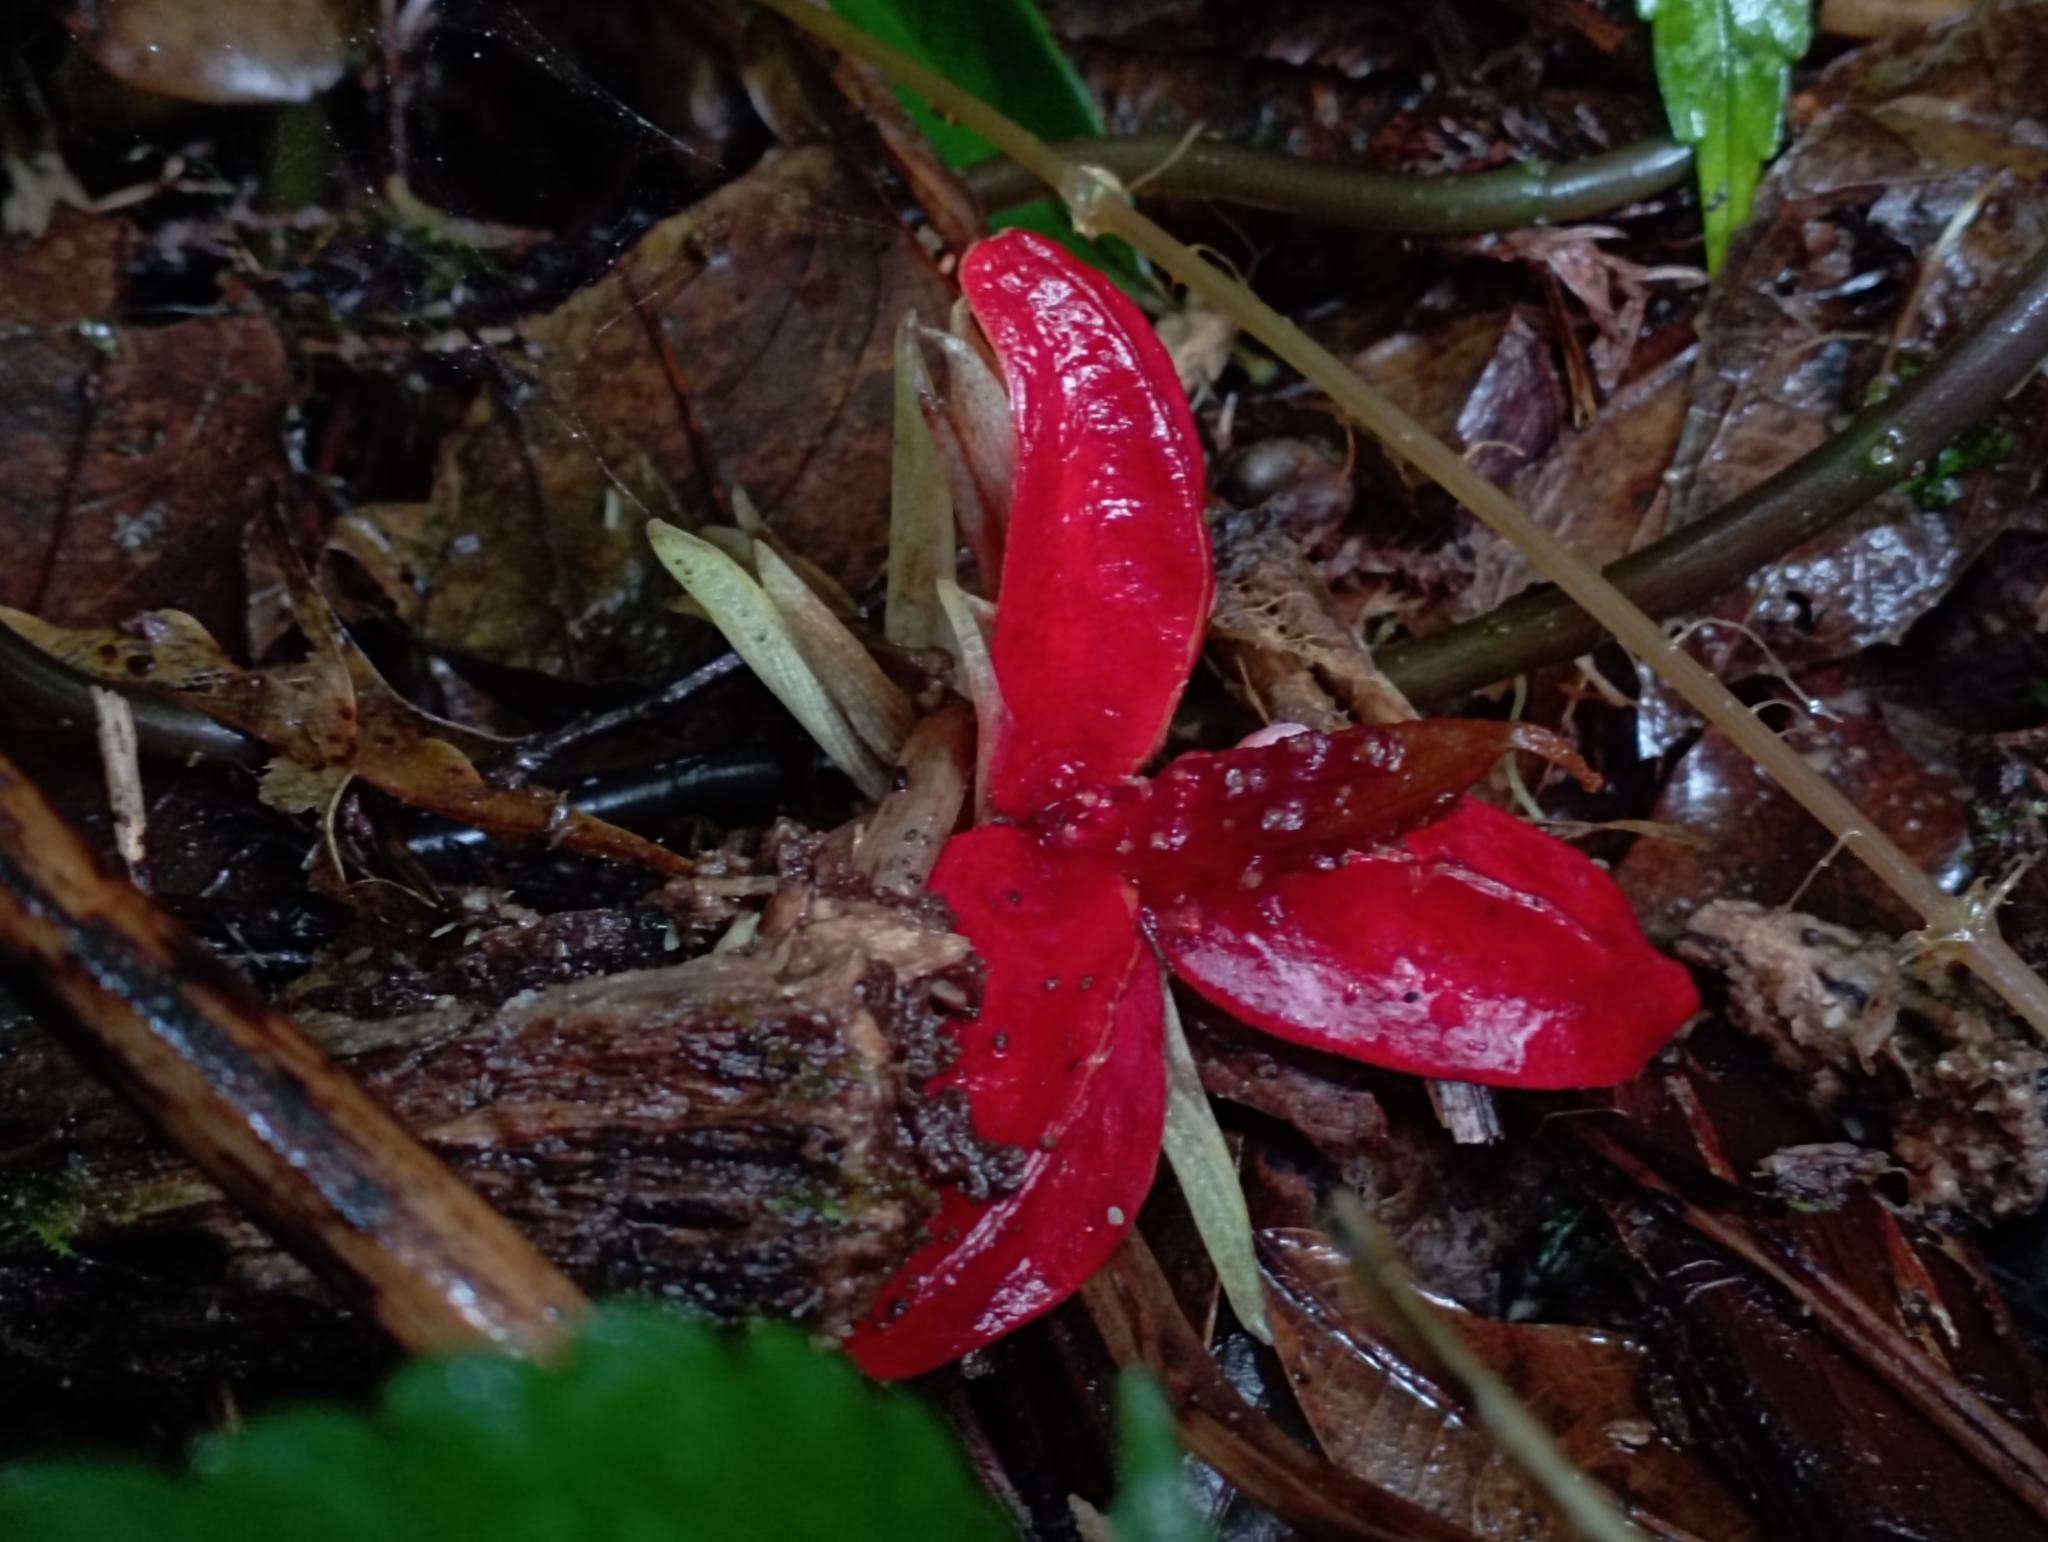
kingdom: Plantae
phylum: Tracheophyta
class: Liliopsida
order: Zingiberales
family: Zingiberaceae
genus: Zingiber
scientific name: Zingiber kawagoii
